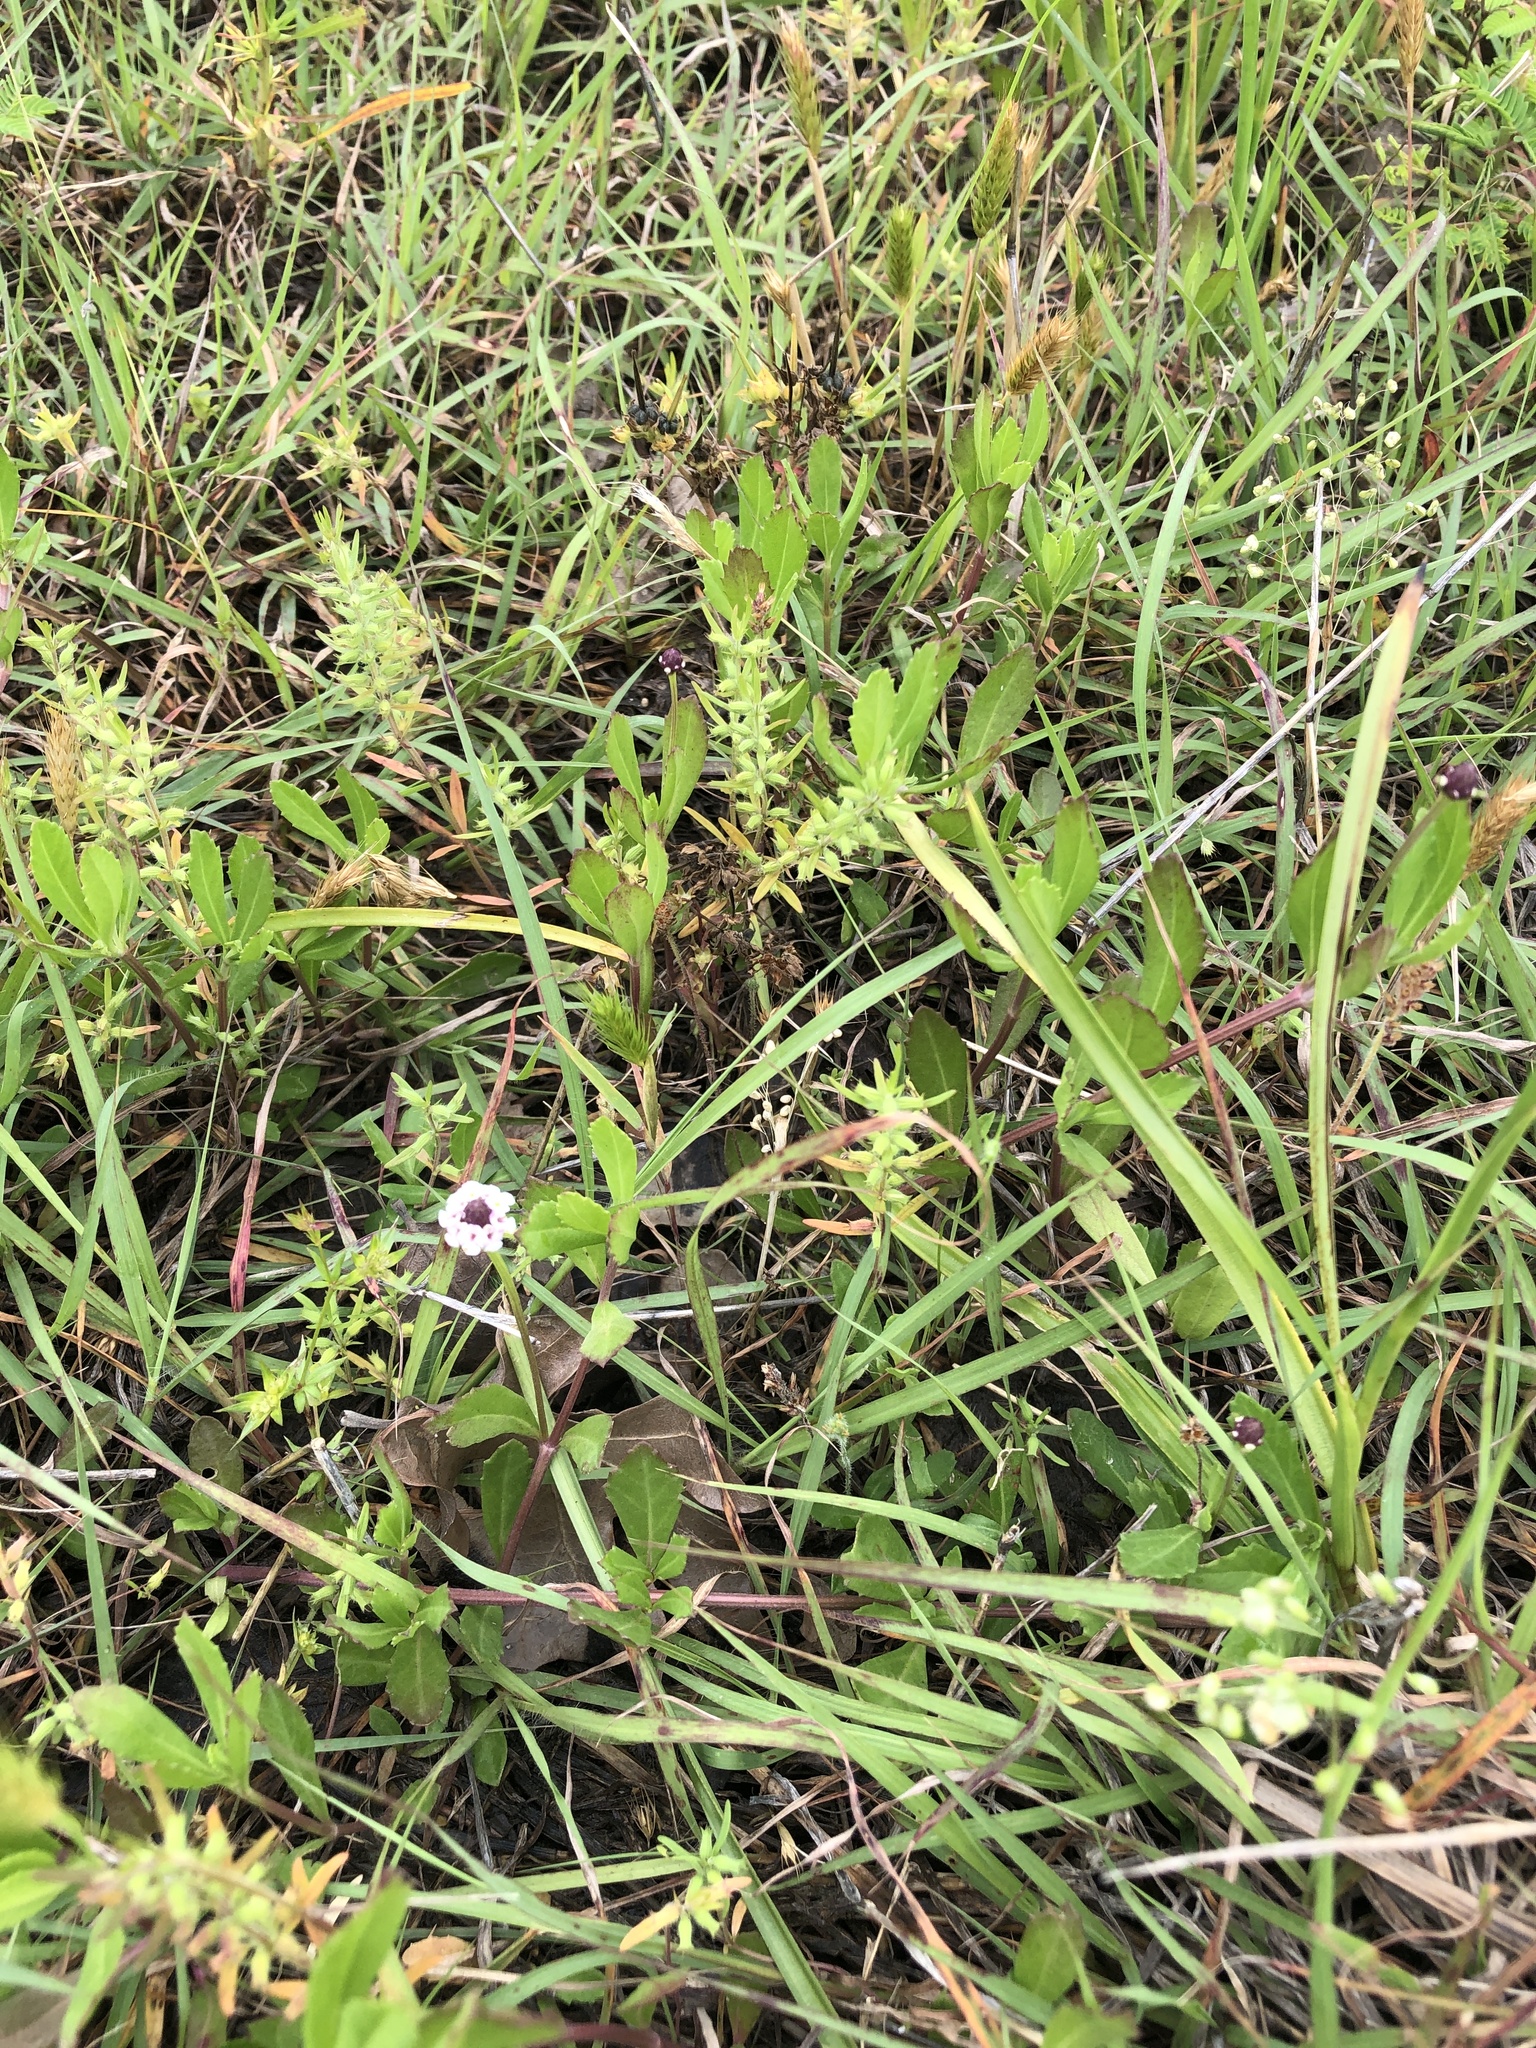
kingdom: Plantae
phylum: Tracheophyta
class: Magnoliopsida
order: Lamiales
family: Verbenaceae
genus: Phyla
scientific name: Phyla nodiflora
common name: Frogfruit
